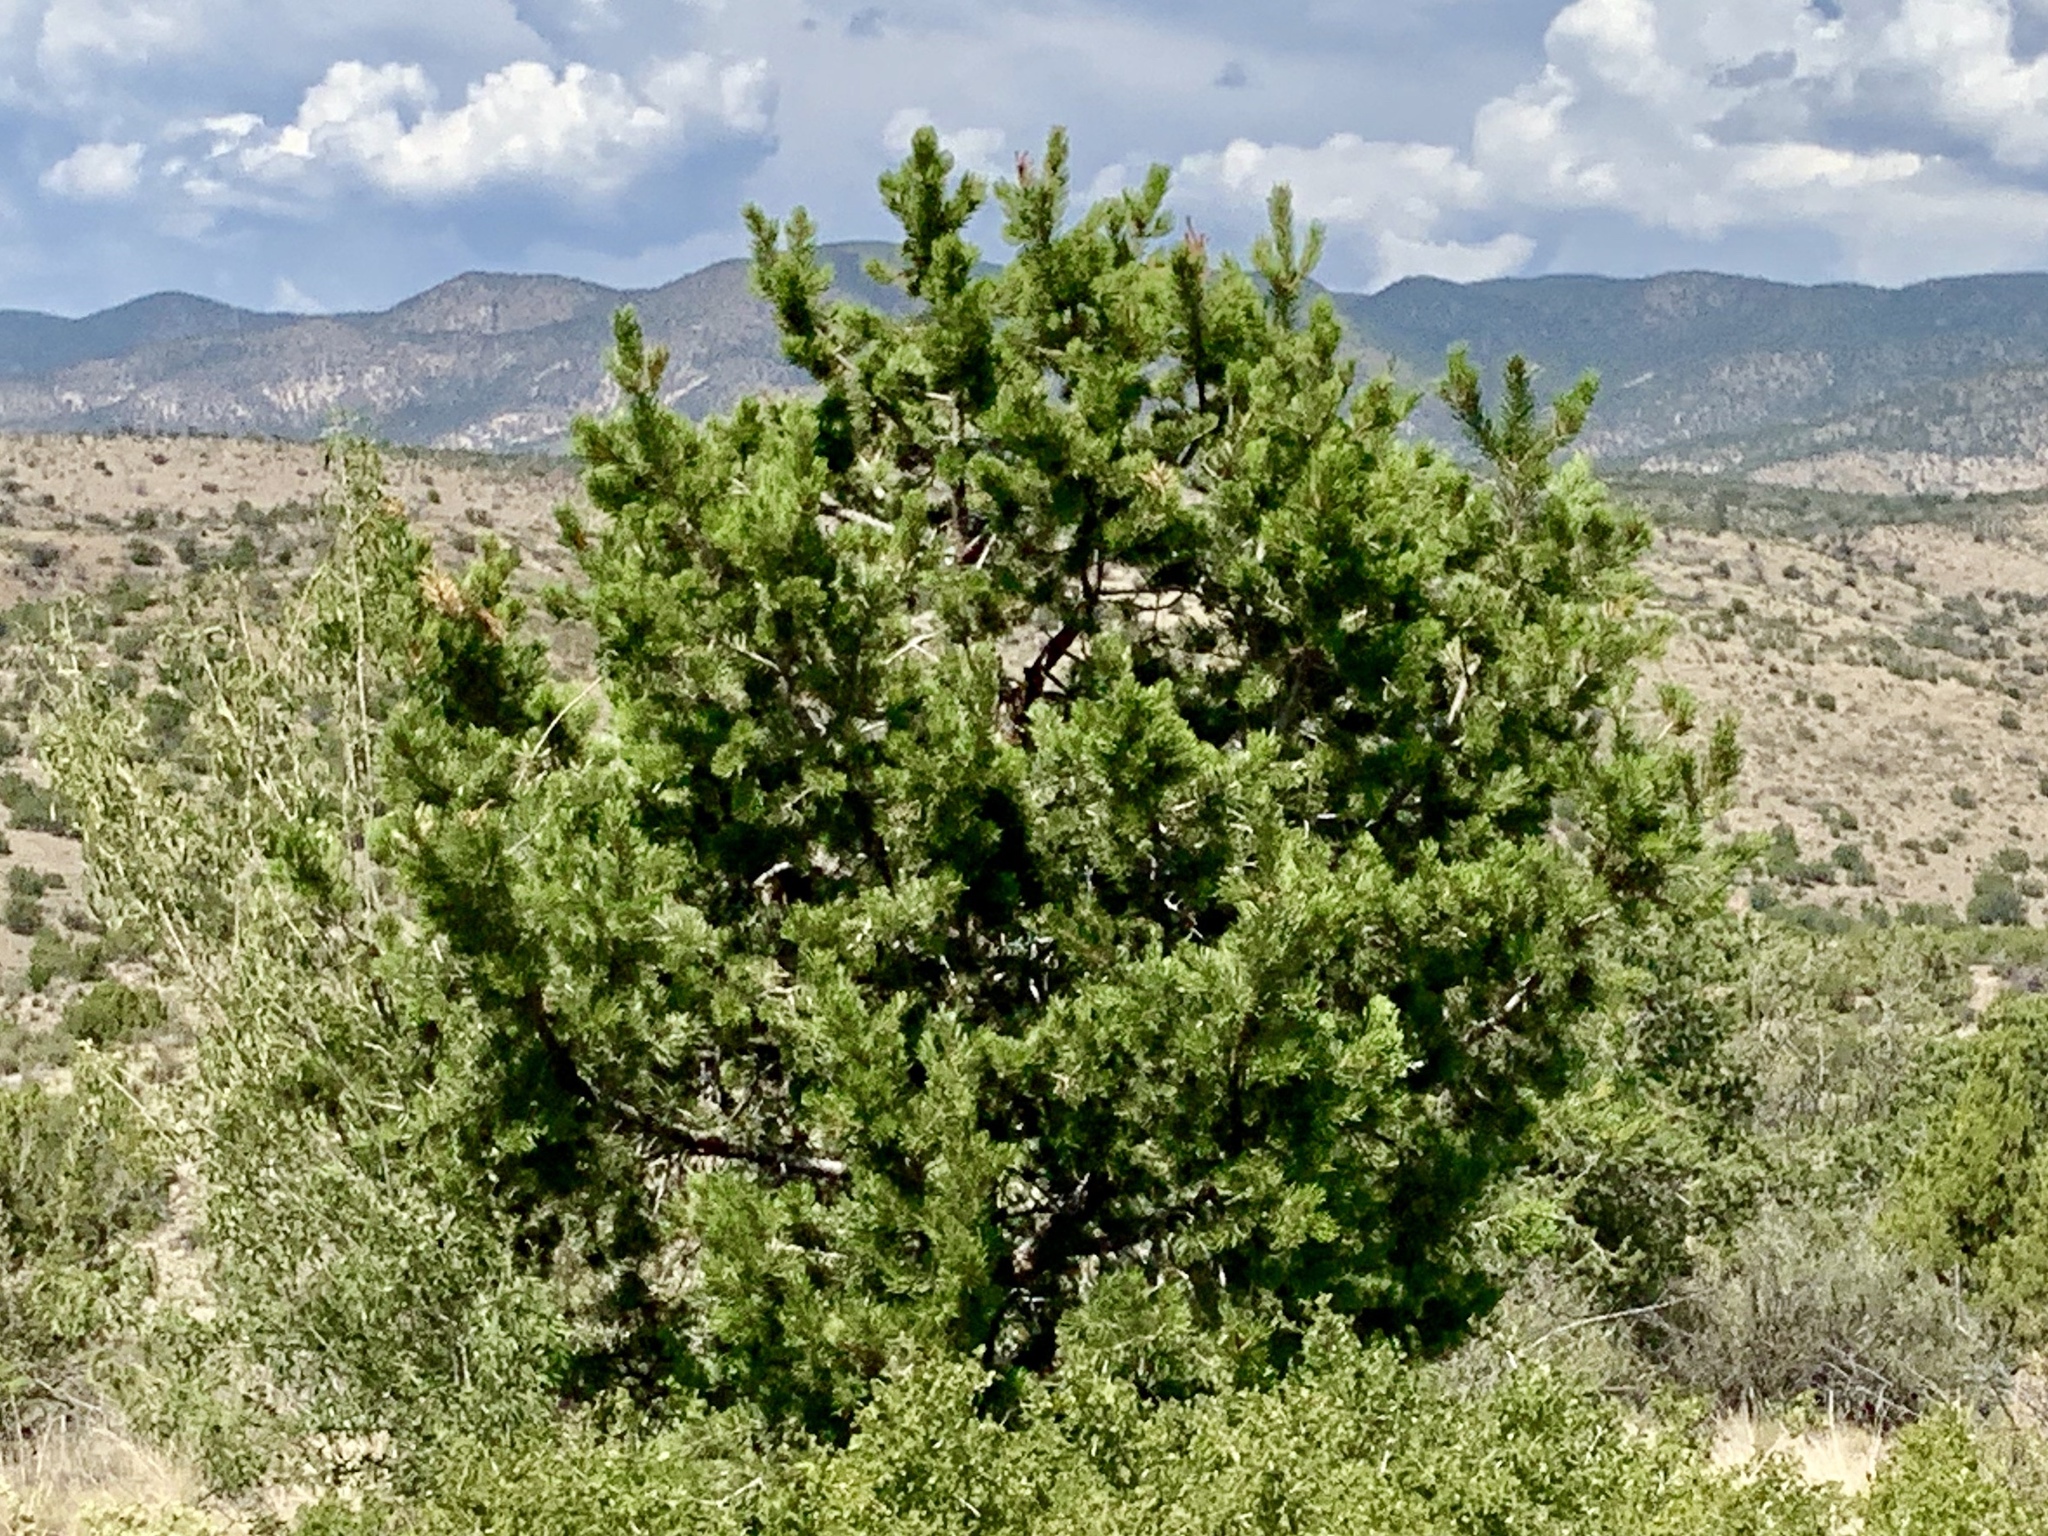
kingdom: Plantae
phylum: Tracheophyta
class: Pinopsida
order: Pinales
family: Pinaceae
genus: Pinus
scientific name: Pinus edulis
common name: Colorado pinyon
